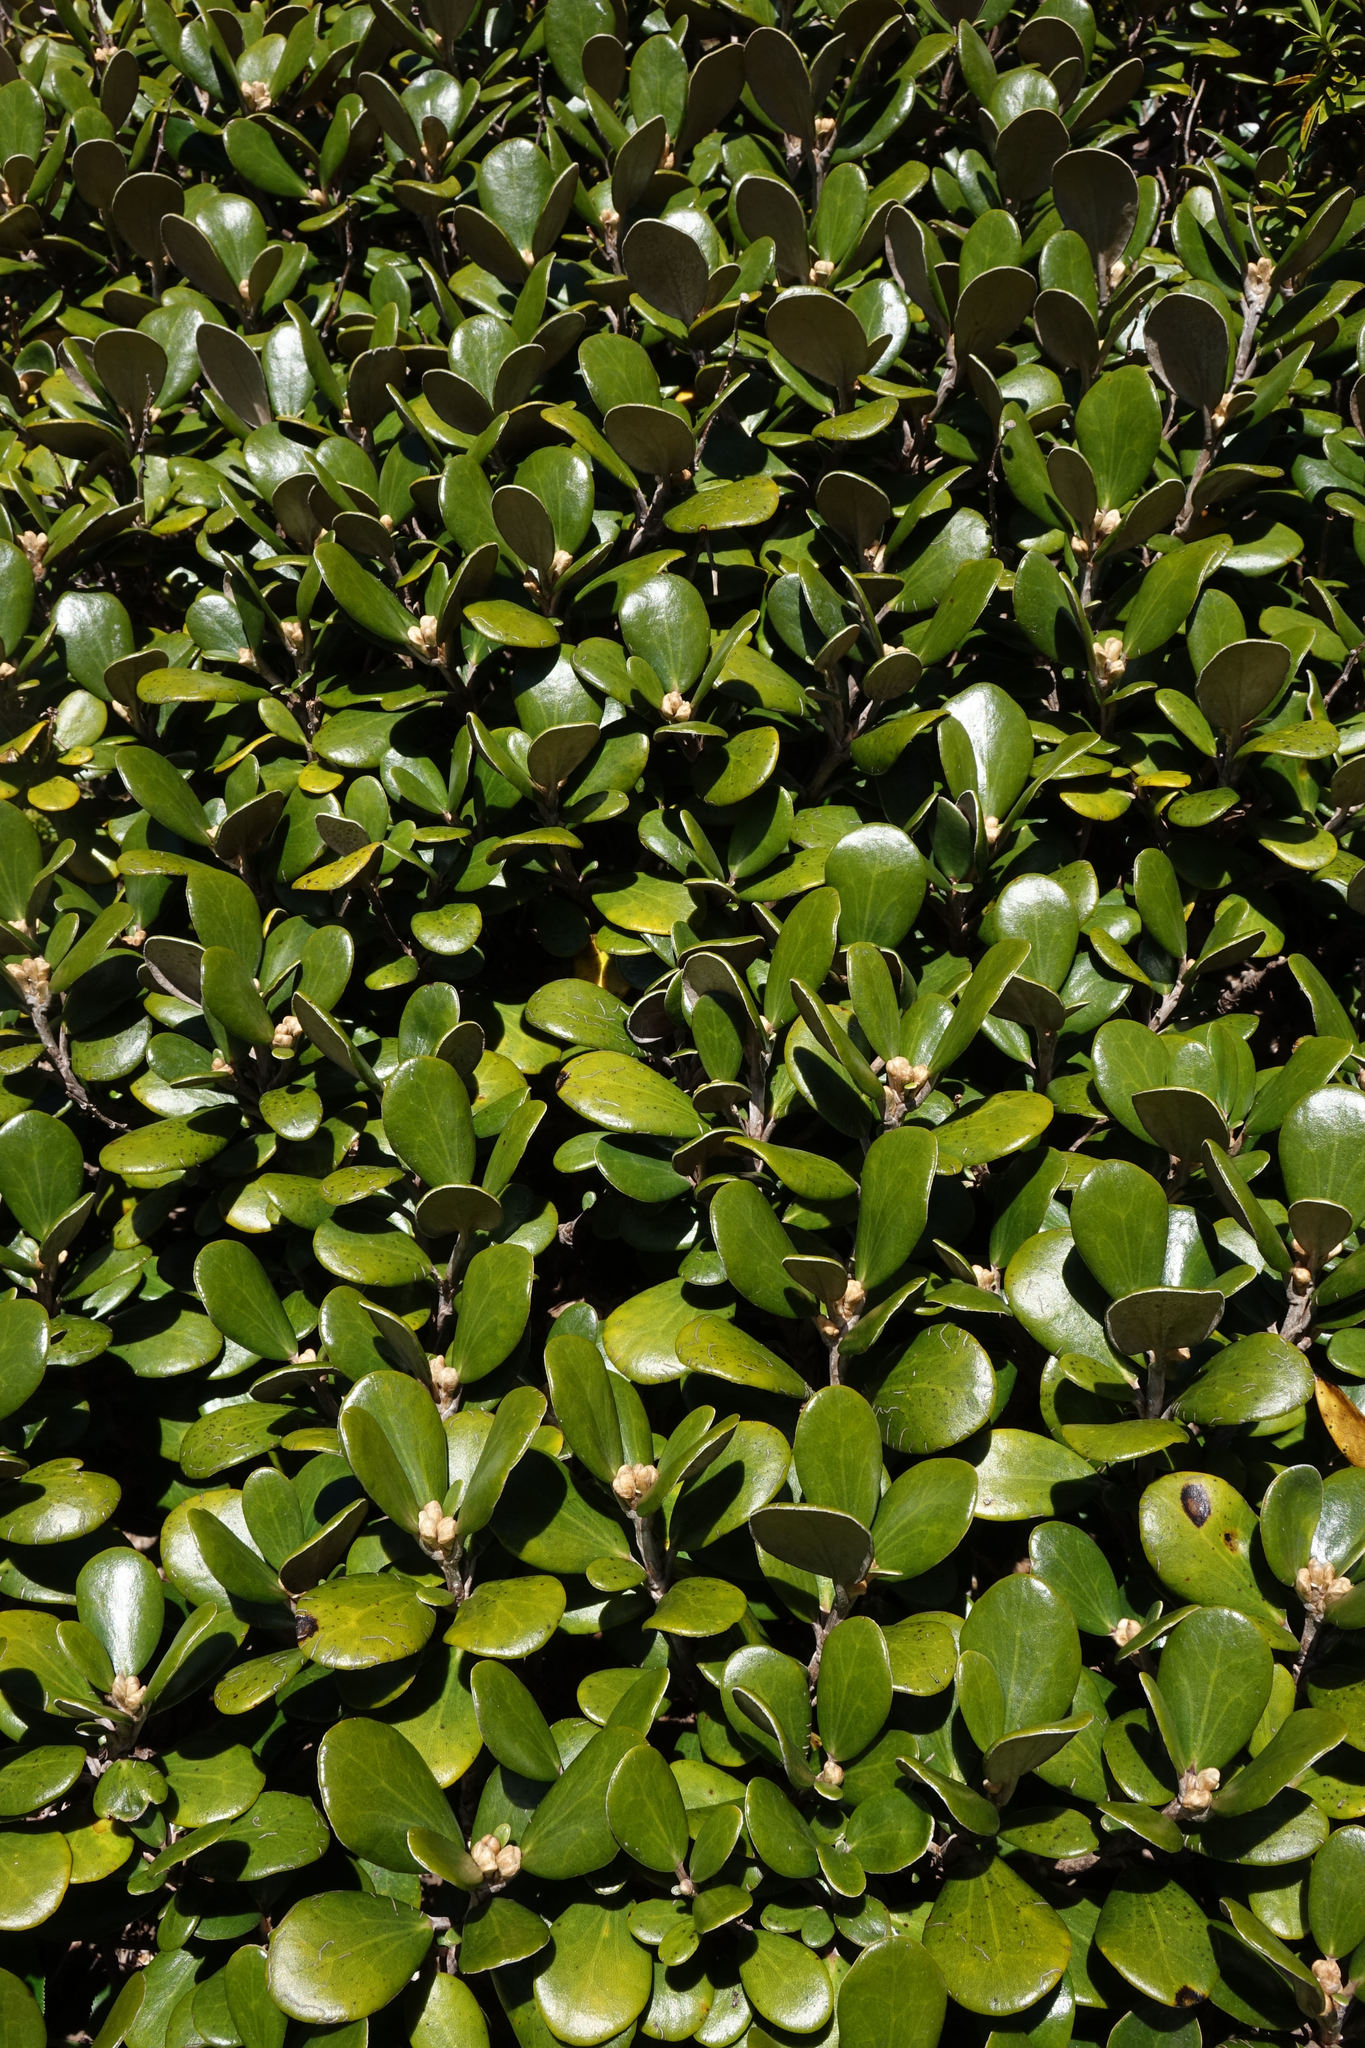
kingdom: Plantae
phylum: Tracheophyta
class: Magnoliopsida
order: Asterales
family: Asteraceae
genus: Brachyglottis
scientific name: Brachyglottis bidwillii
